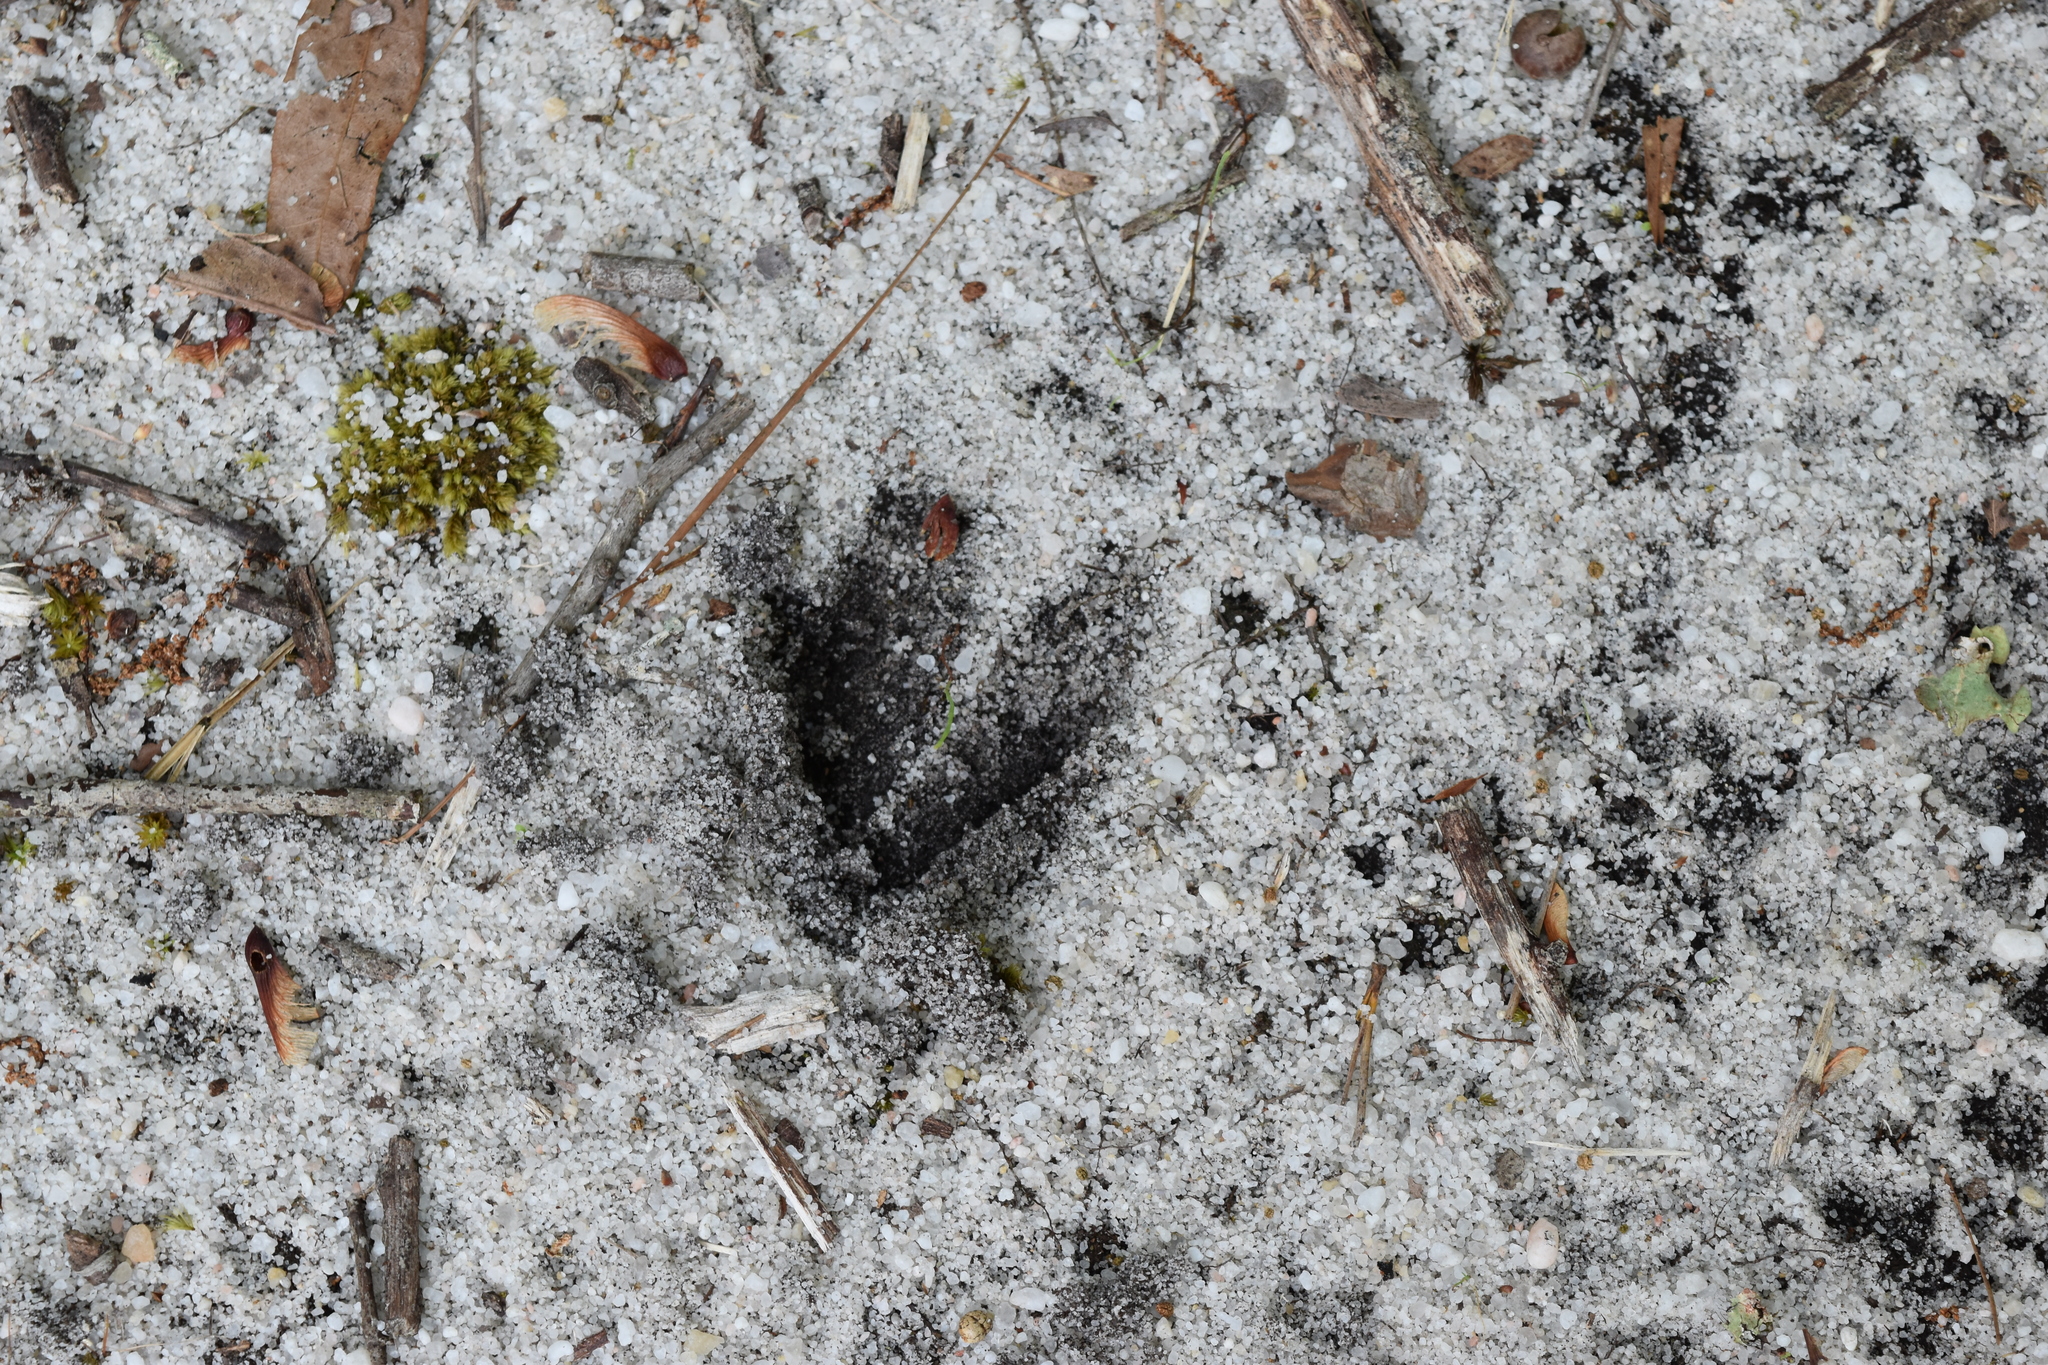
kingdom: Animalia
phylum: Chordata
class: Mammalia
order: Artiodactyla
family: Cervidae
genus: Odocoileus
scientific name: Odocoileus virginianus
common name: White-tailed deer
